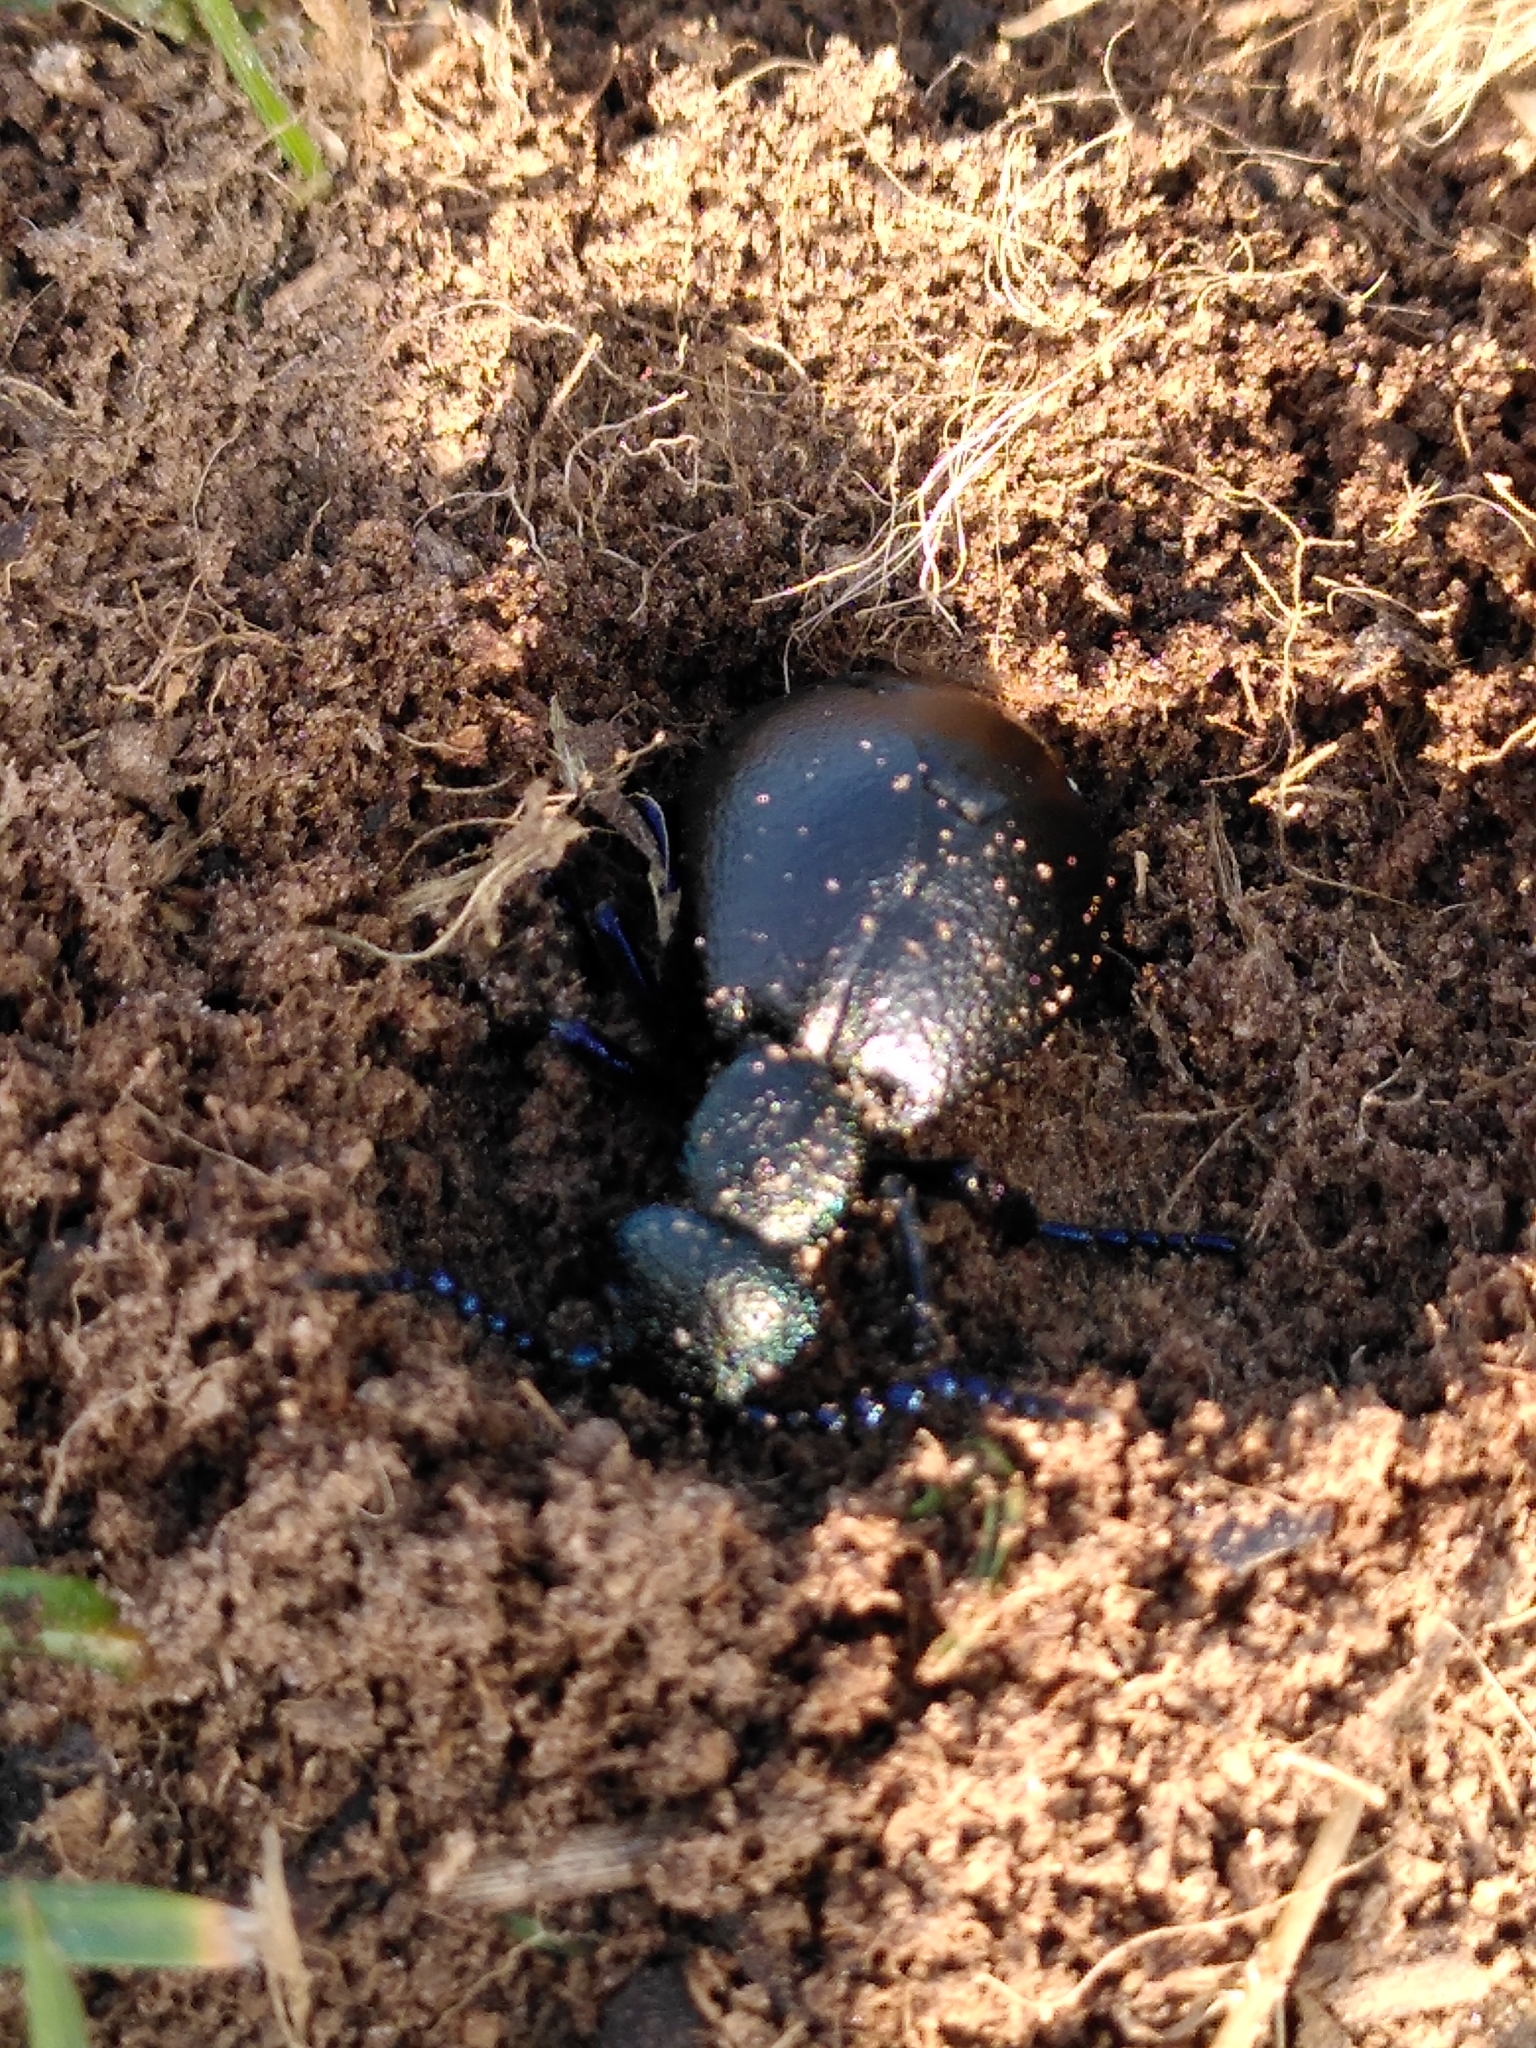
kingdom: Animalia
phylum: Arthropoda
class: Insecta
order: Coleoptera
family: Meloidae
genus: Meloe
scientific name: Meloe proscarabaeus
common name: Black oil-beetle
